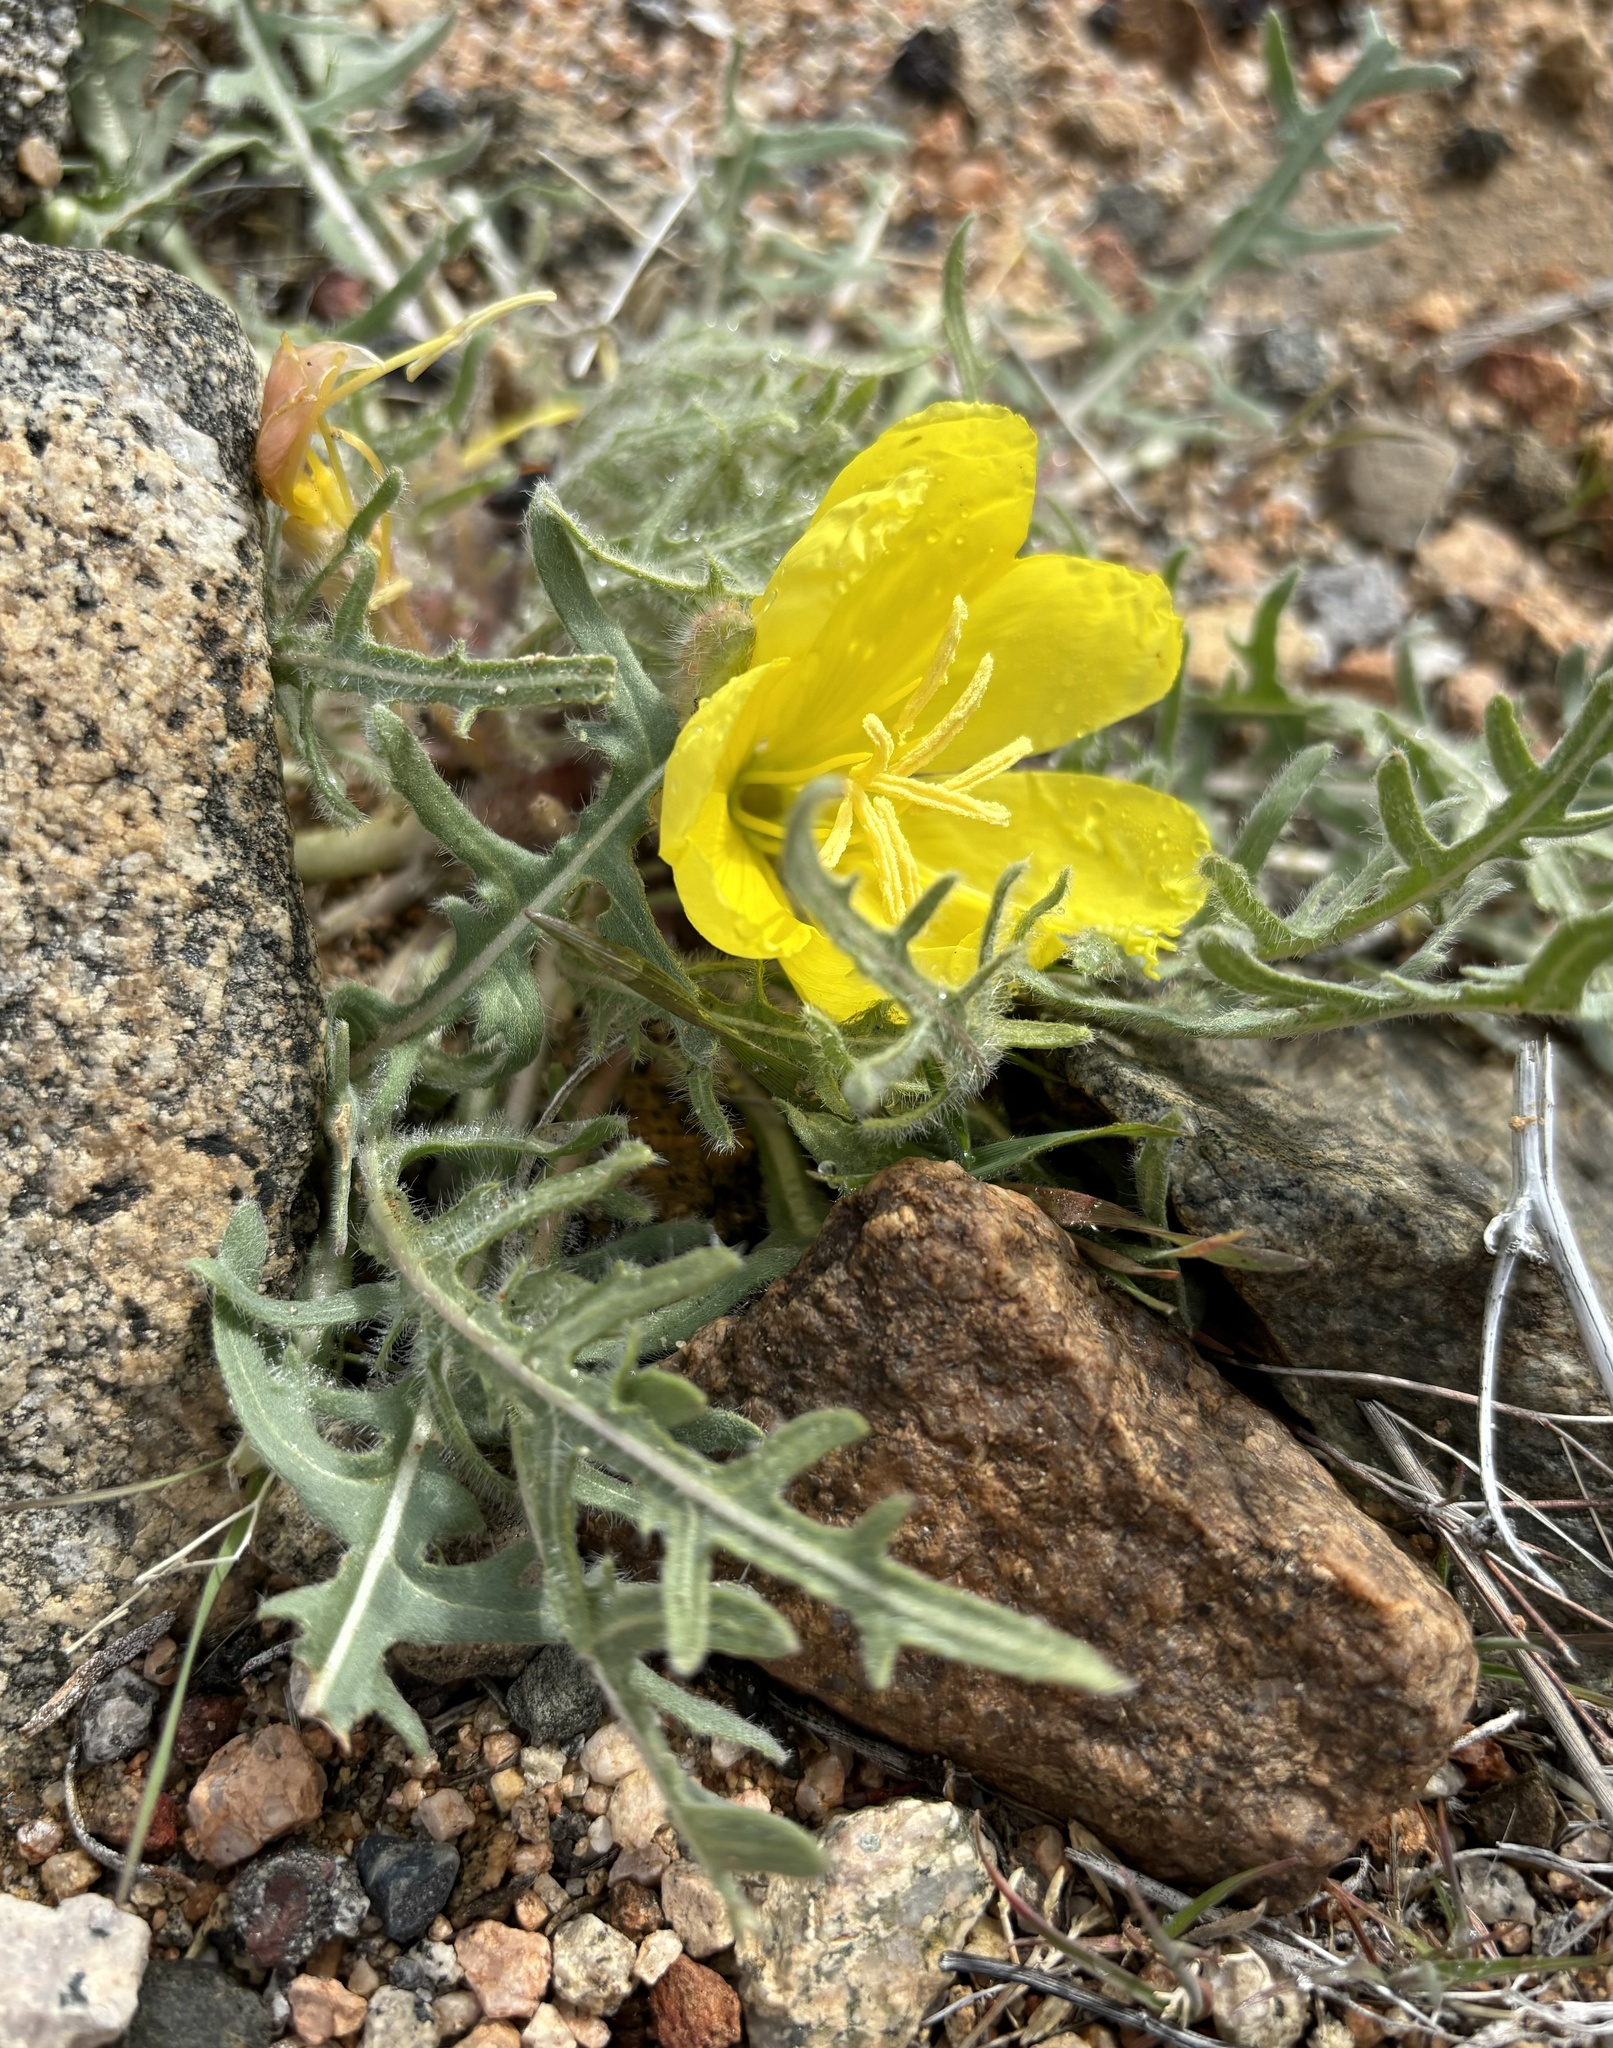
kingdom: Plantae
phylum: Tracheophyta
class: Magnoliopsida
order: Myrtales
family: Onagraceae
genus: Oenothera
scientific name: Oenothera primiveris
